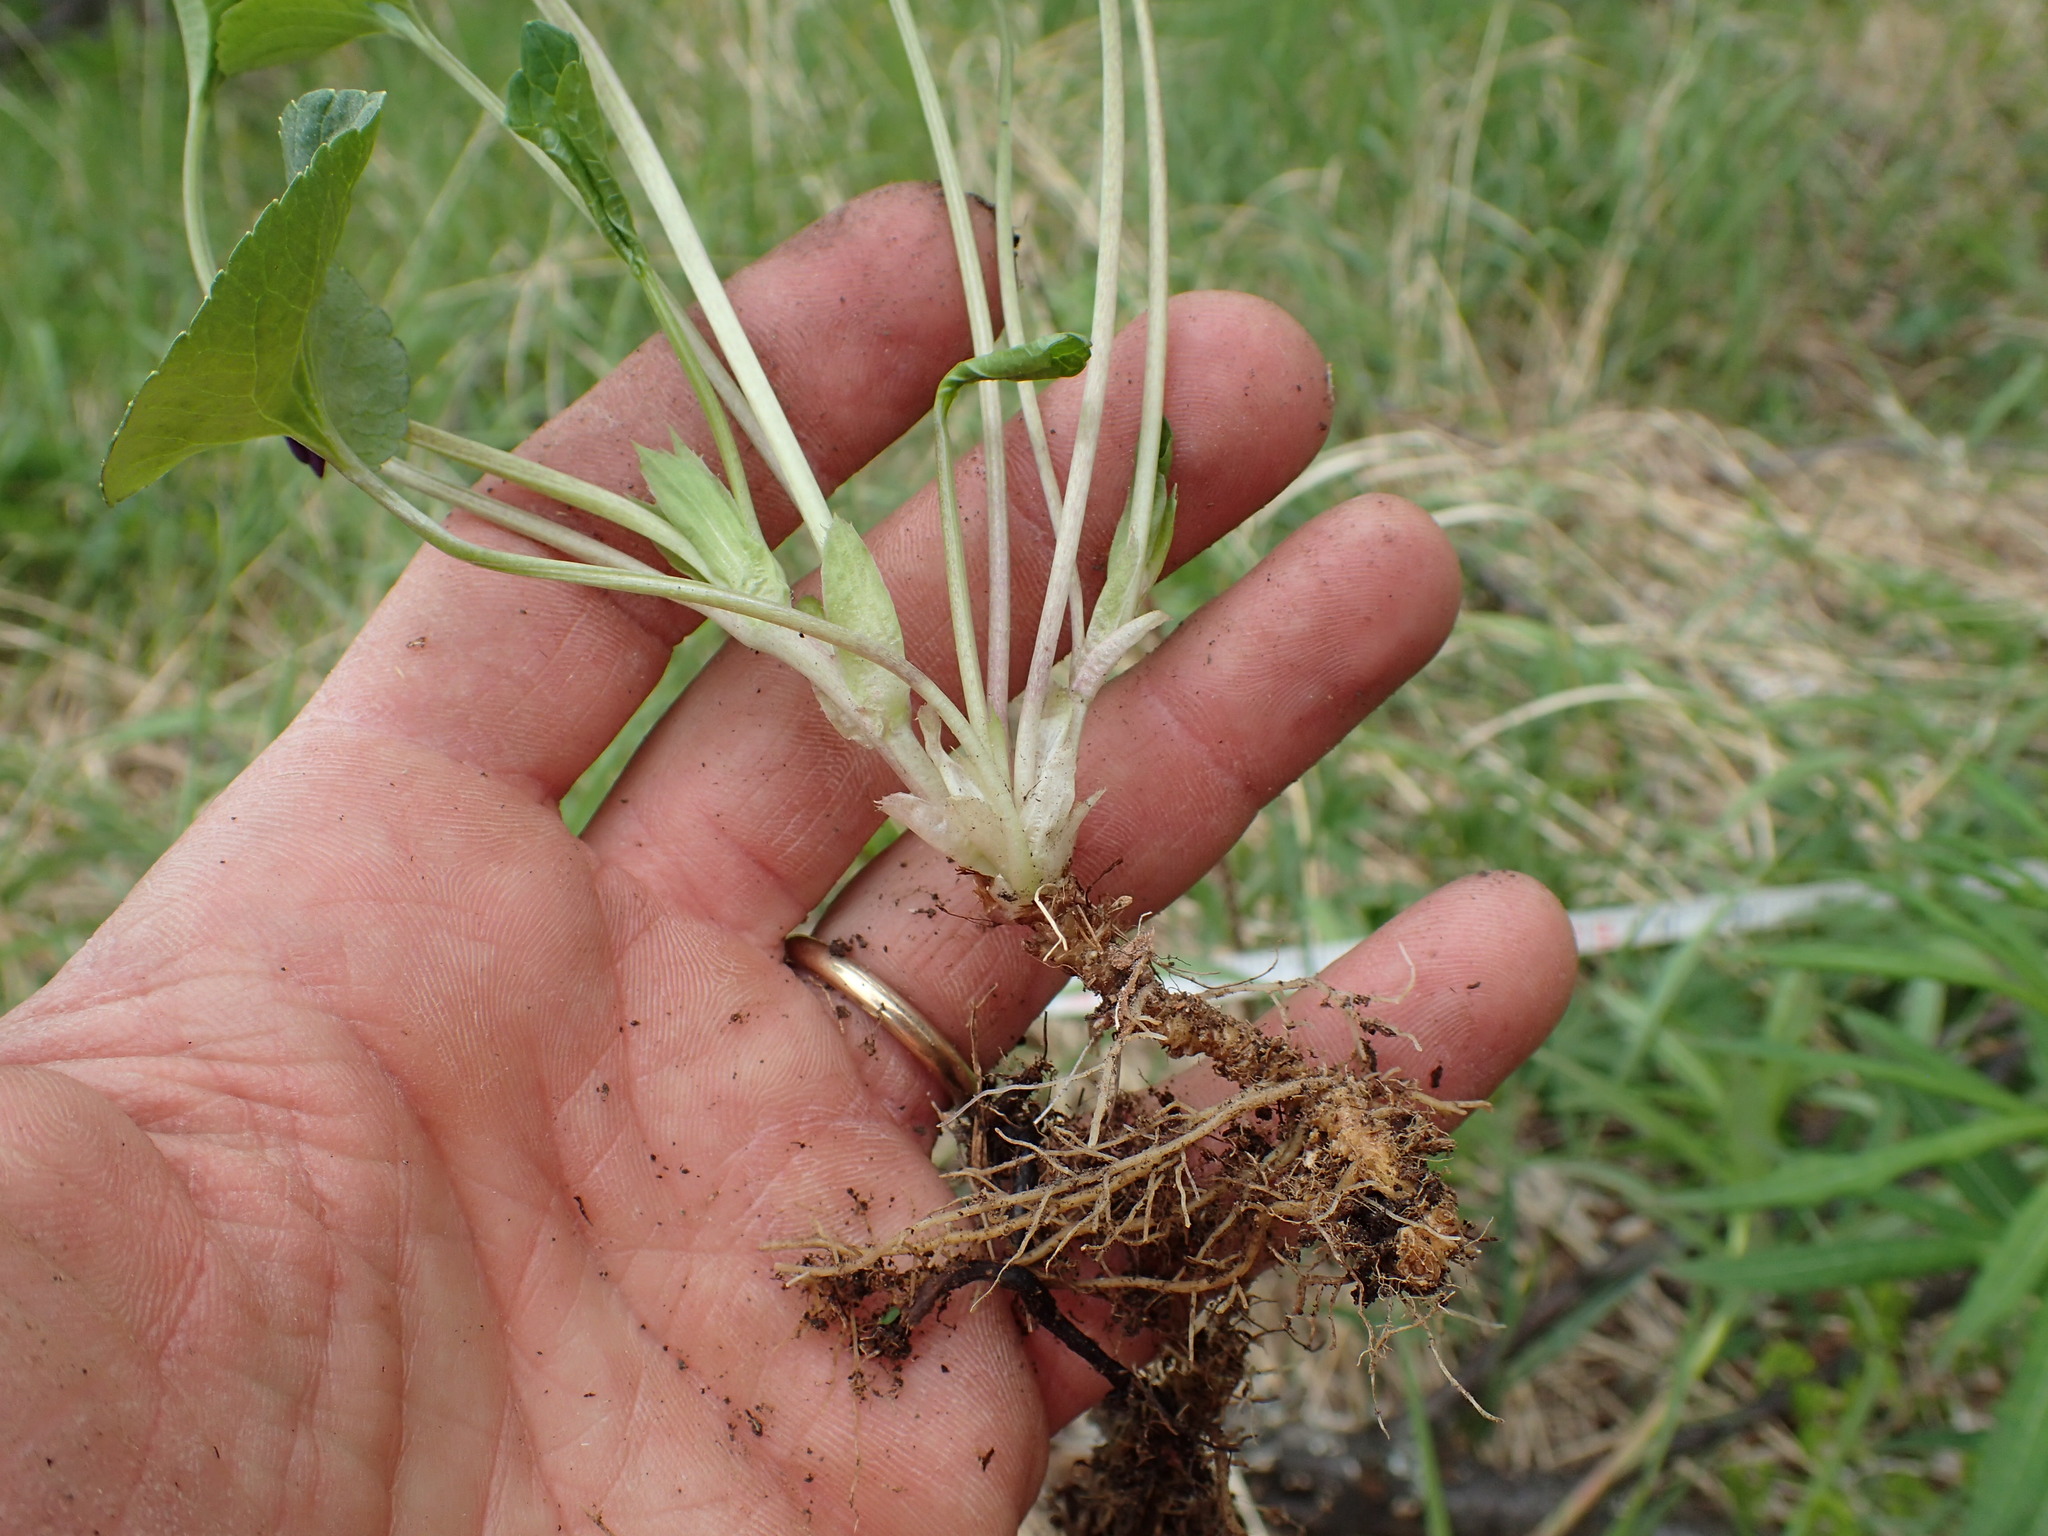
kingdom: Plantae
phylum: Tracheophyta
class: Magnoliopsida
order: Malpighiales
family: Violaceae
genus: Viola
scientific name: Viola langsdorffii
